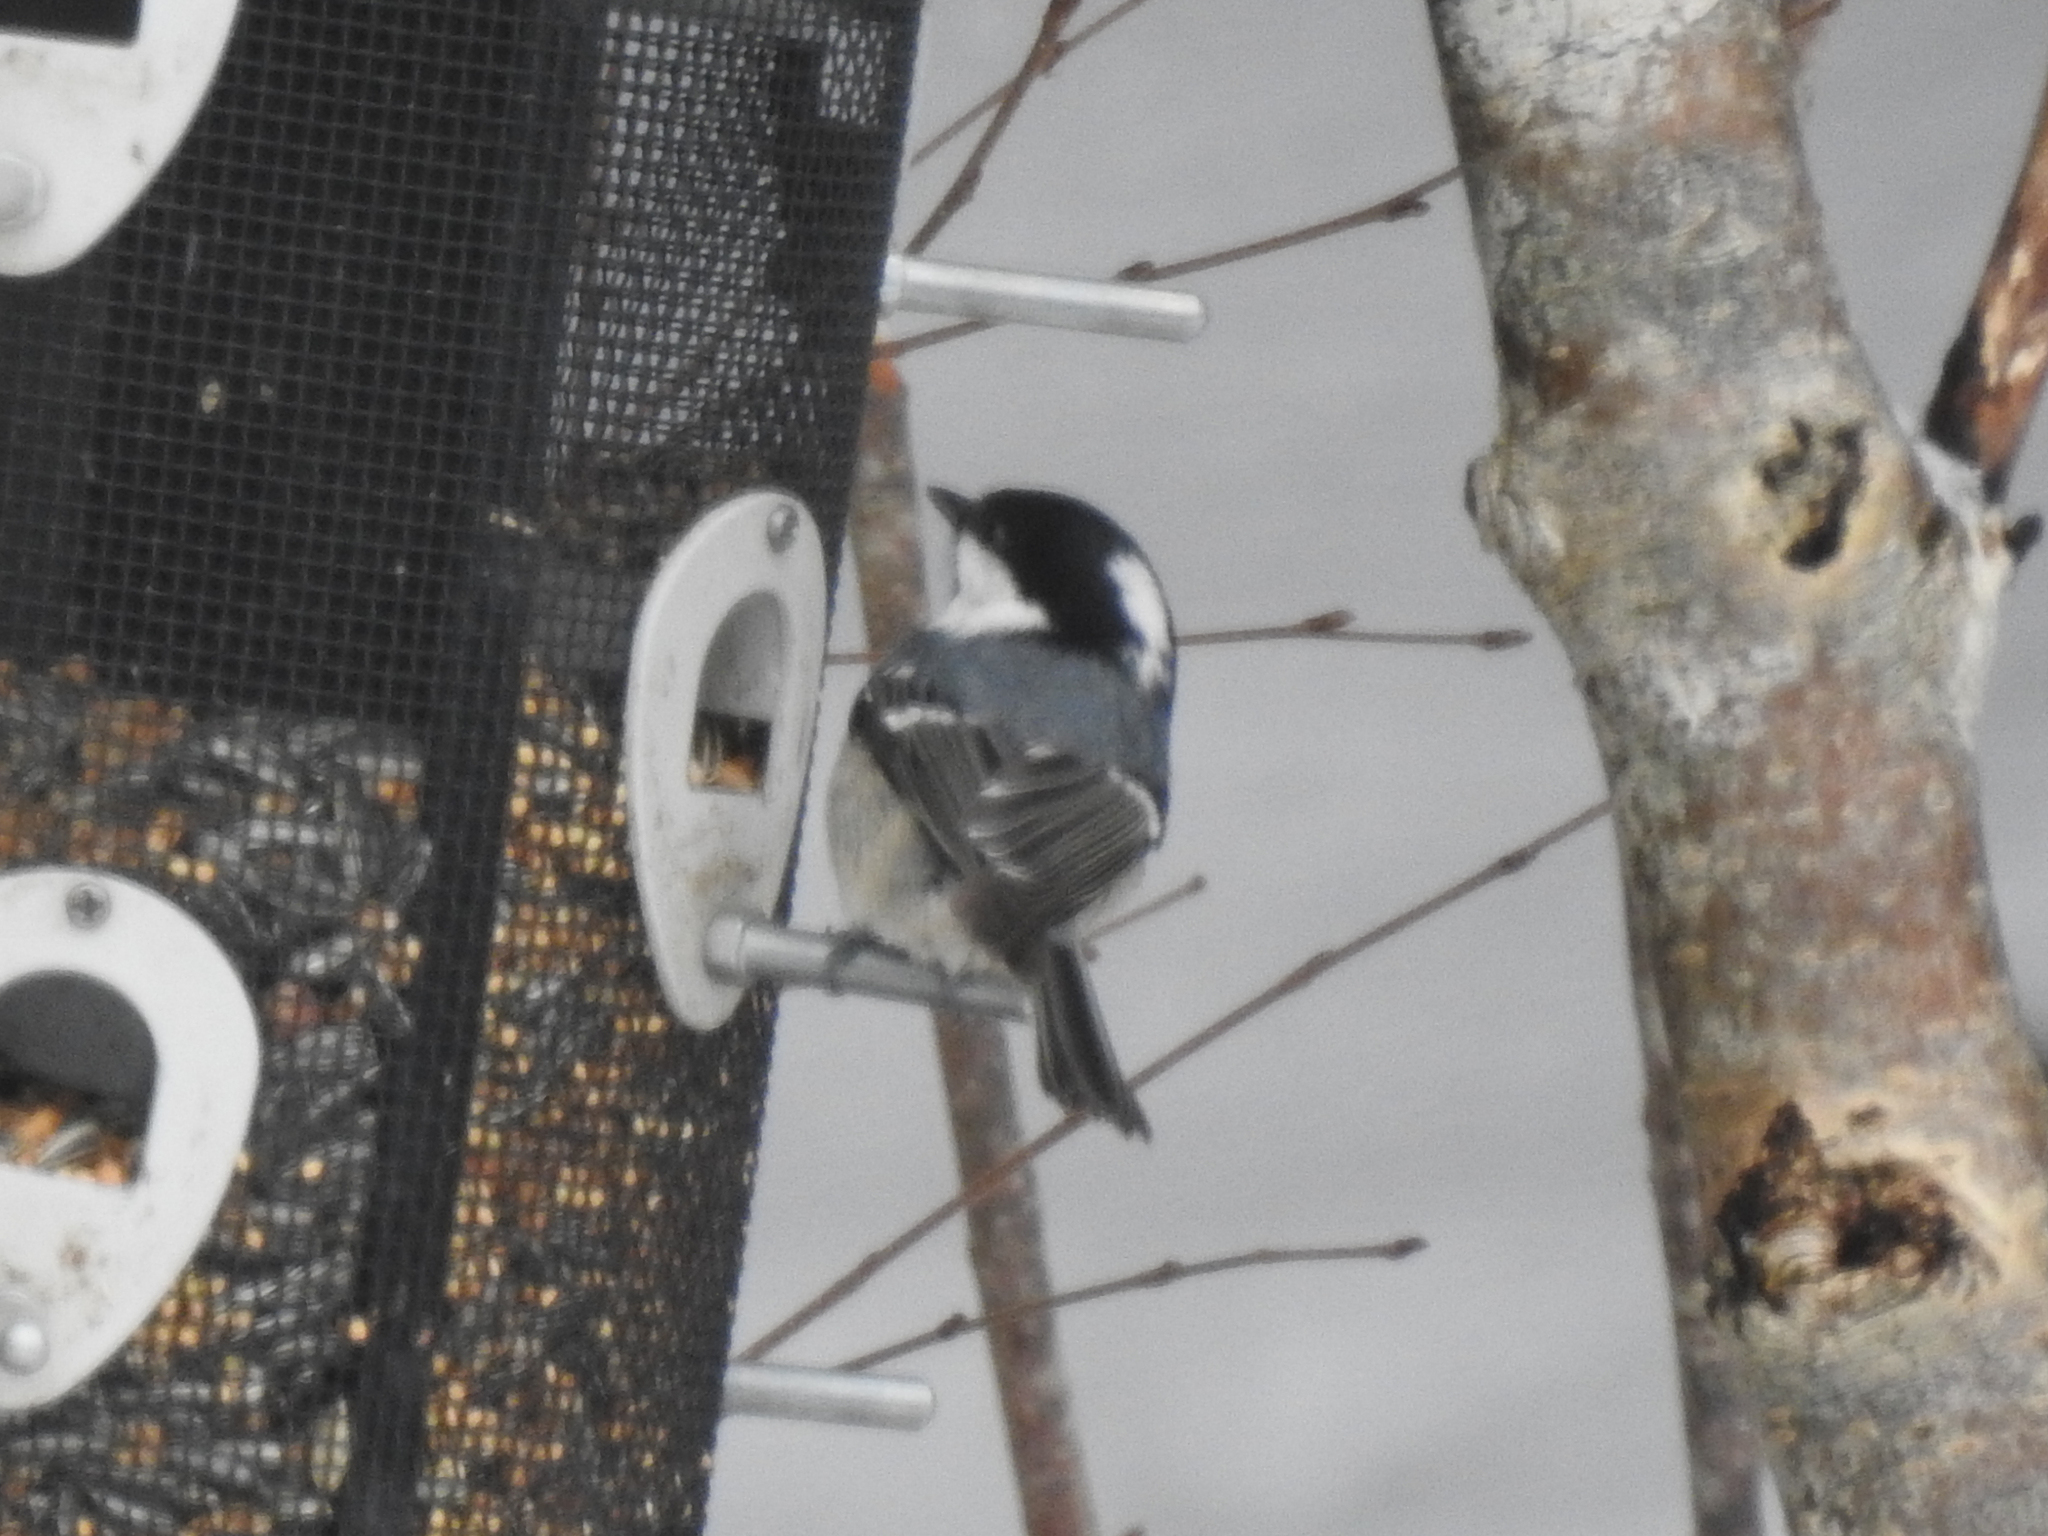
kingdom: Animalia
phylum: Chordata
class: Aves
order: Passeriformes
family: Paridae
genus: Periparus
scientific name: Periparus ater
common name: Coal tit
